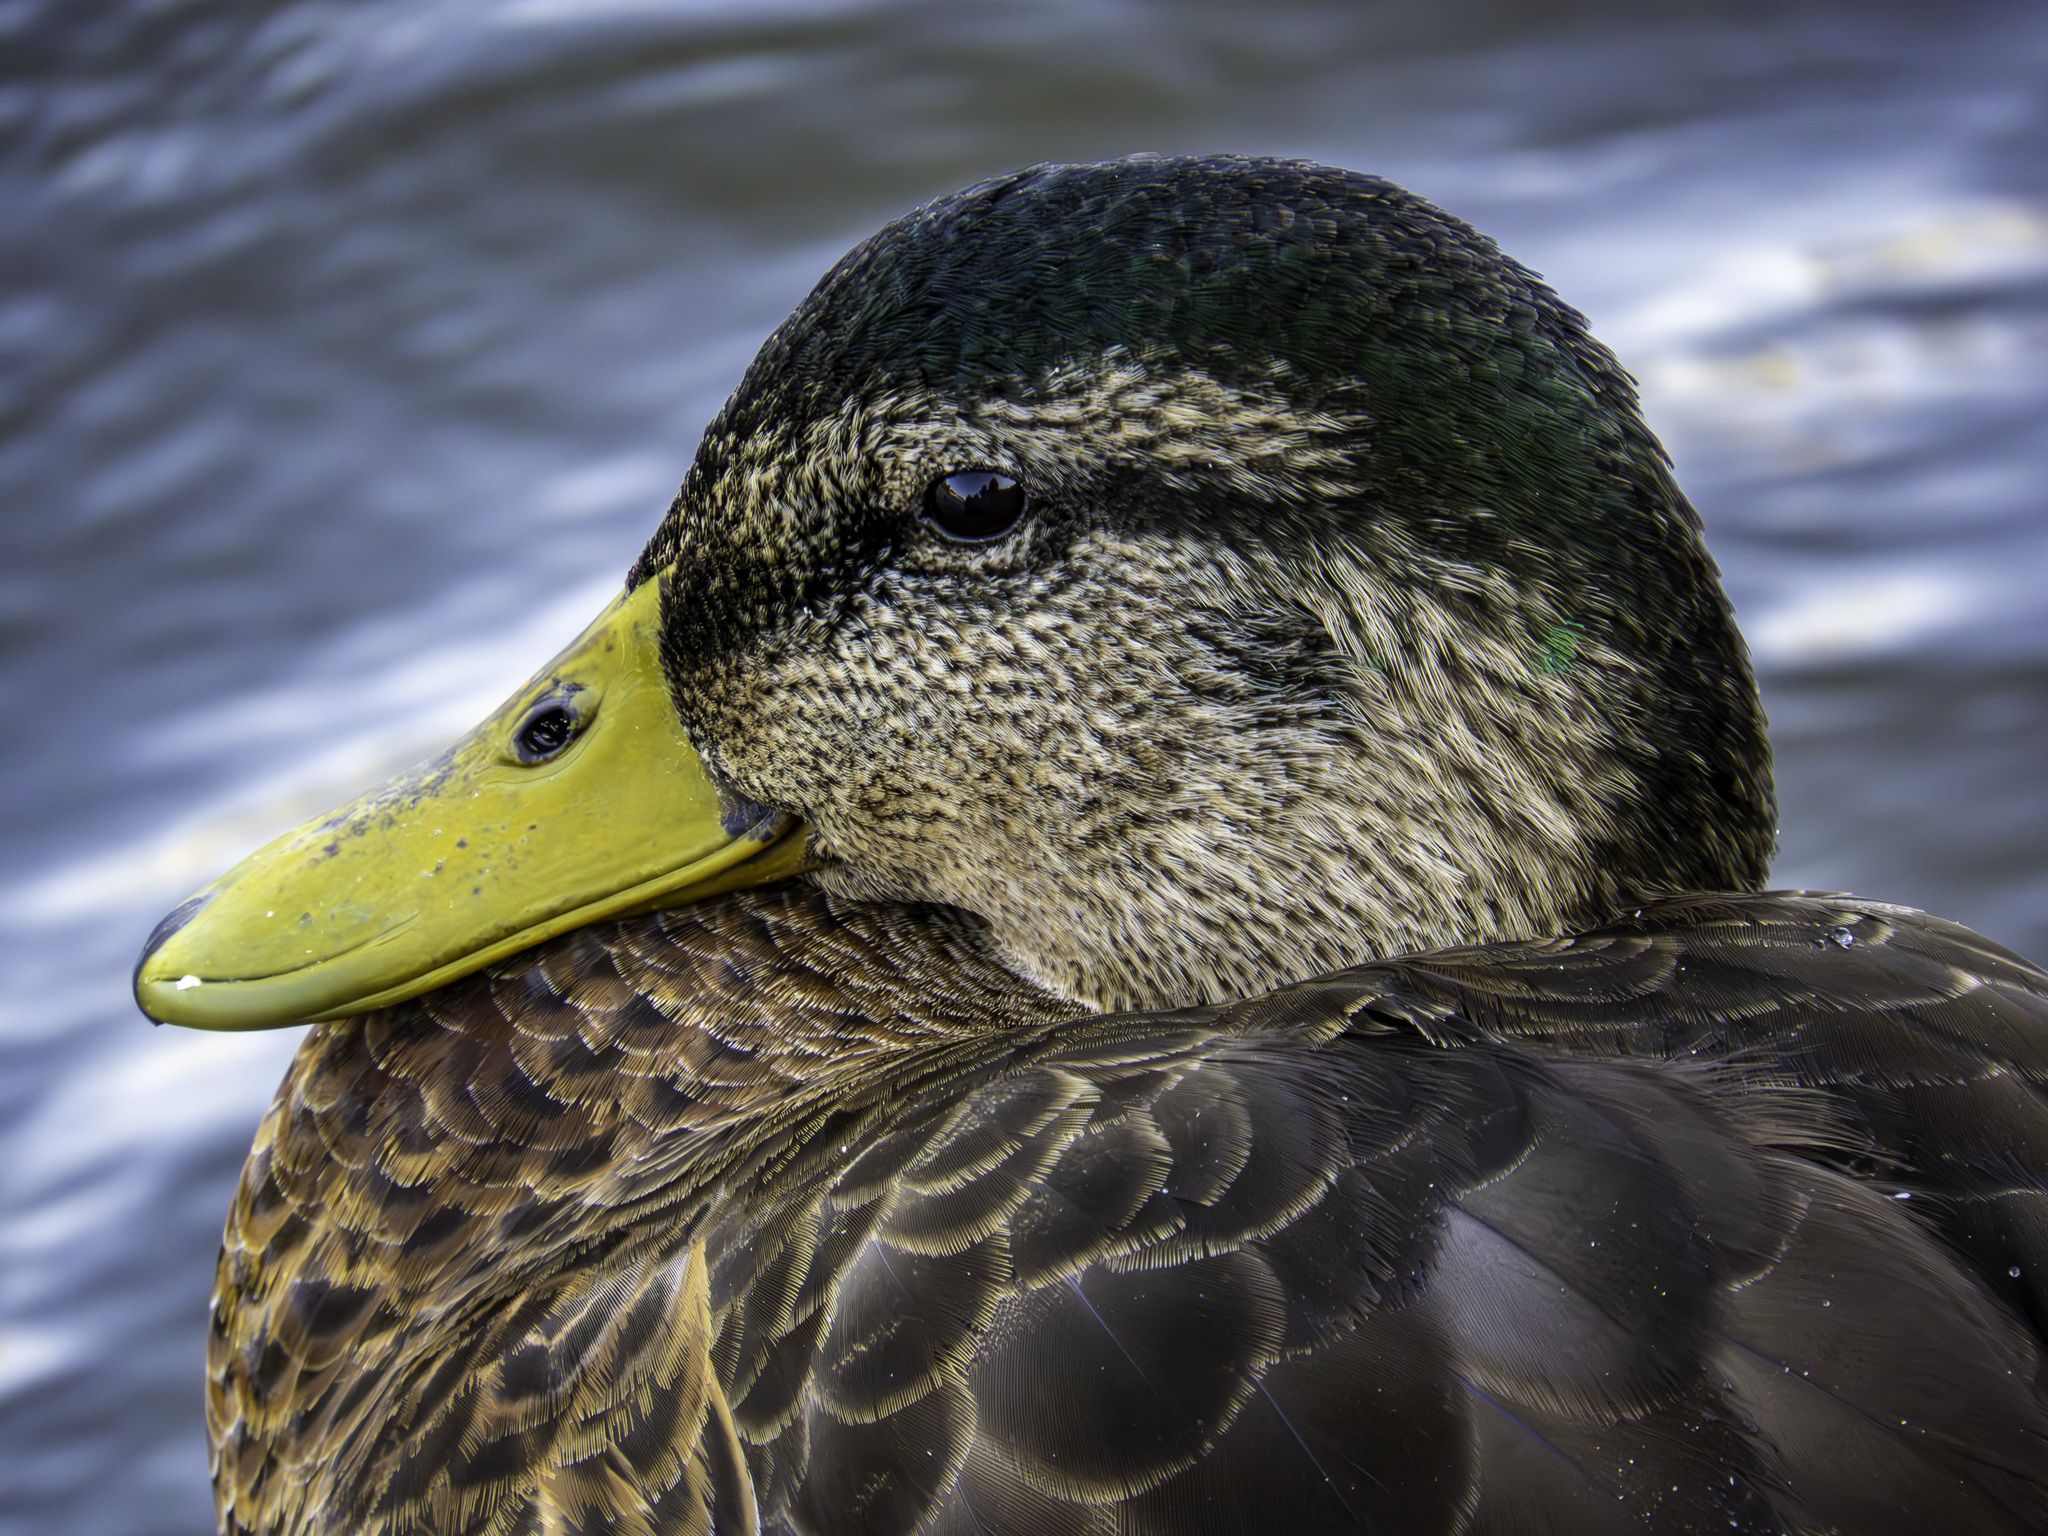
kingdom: Animalia
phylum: Chordata
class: Aves
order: Anseriformes
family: Anatidae
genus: Anas
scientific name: Anas platyrhynchos
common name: Mallard
